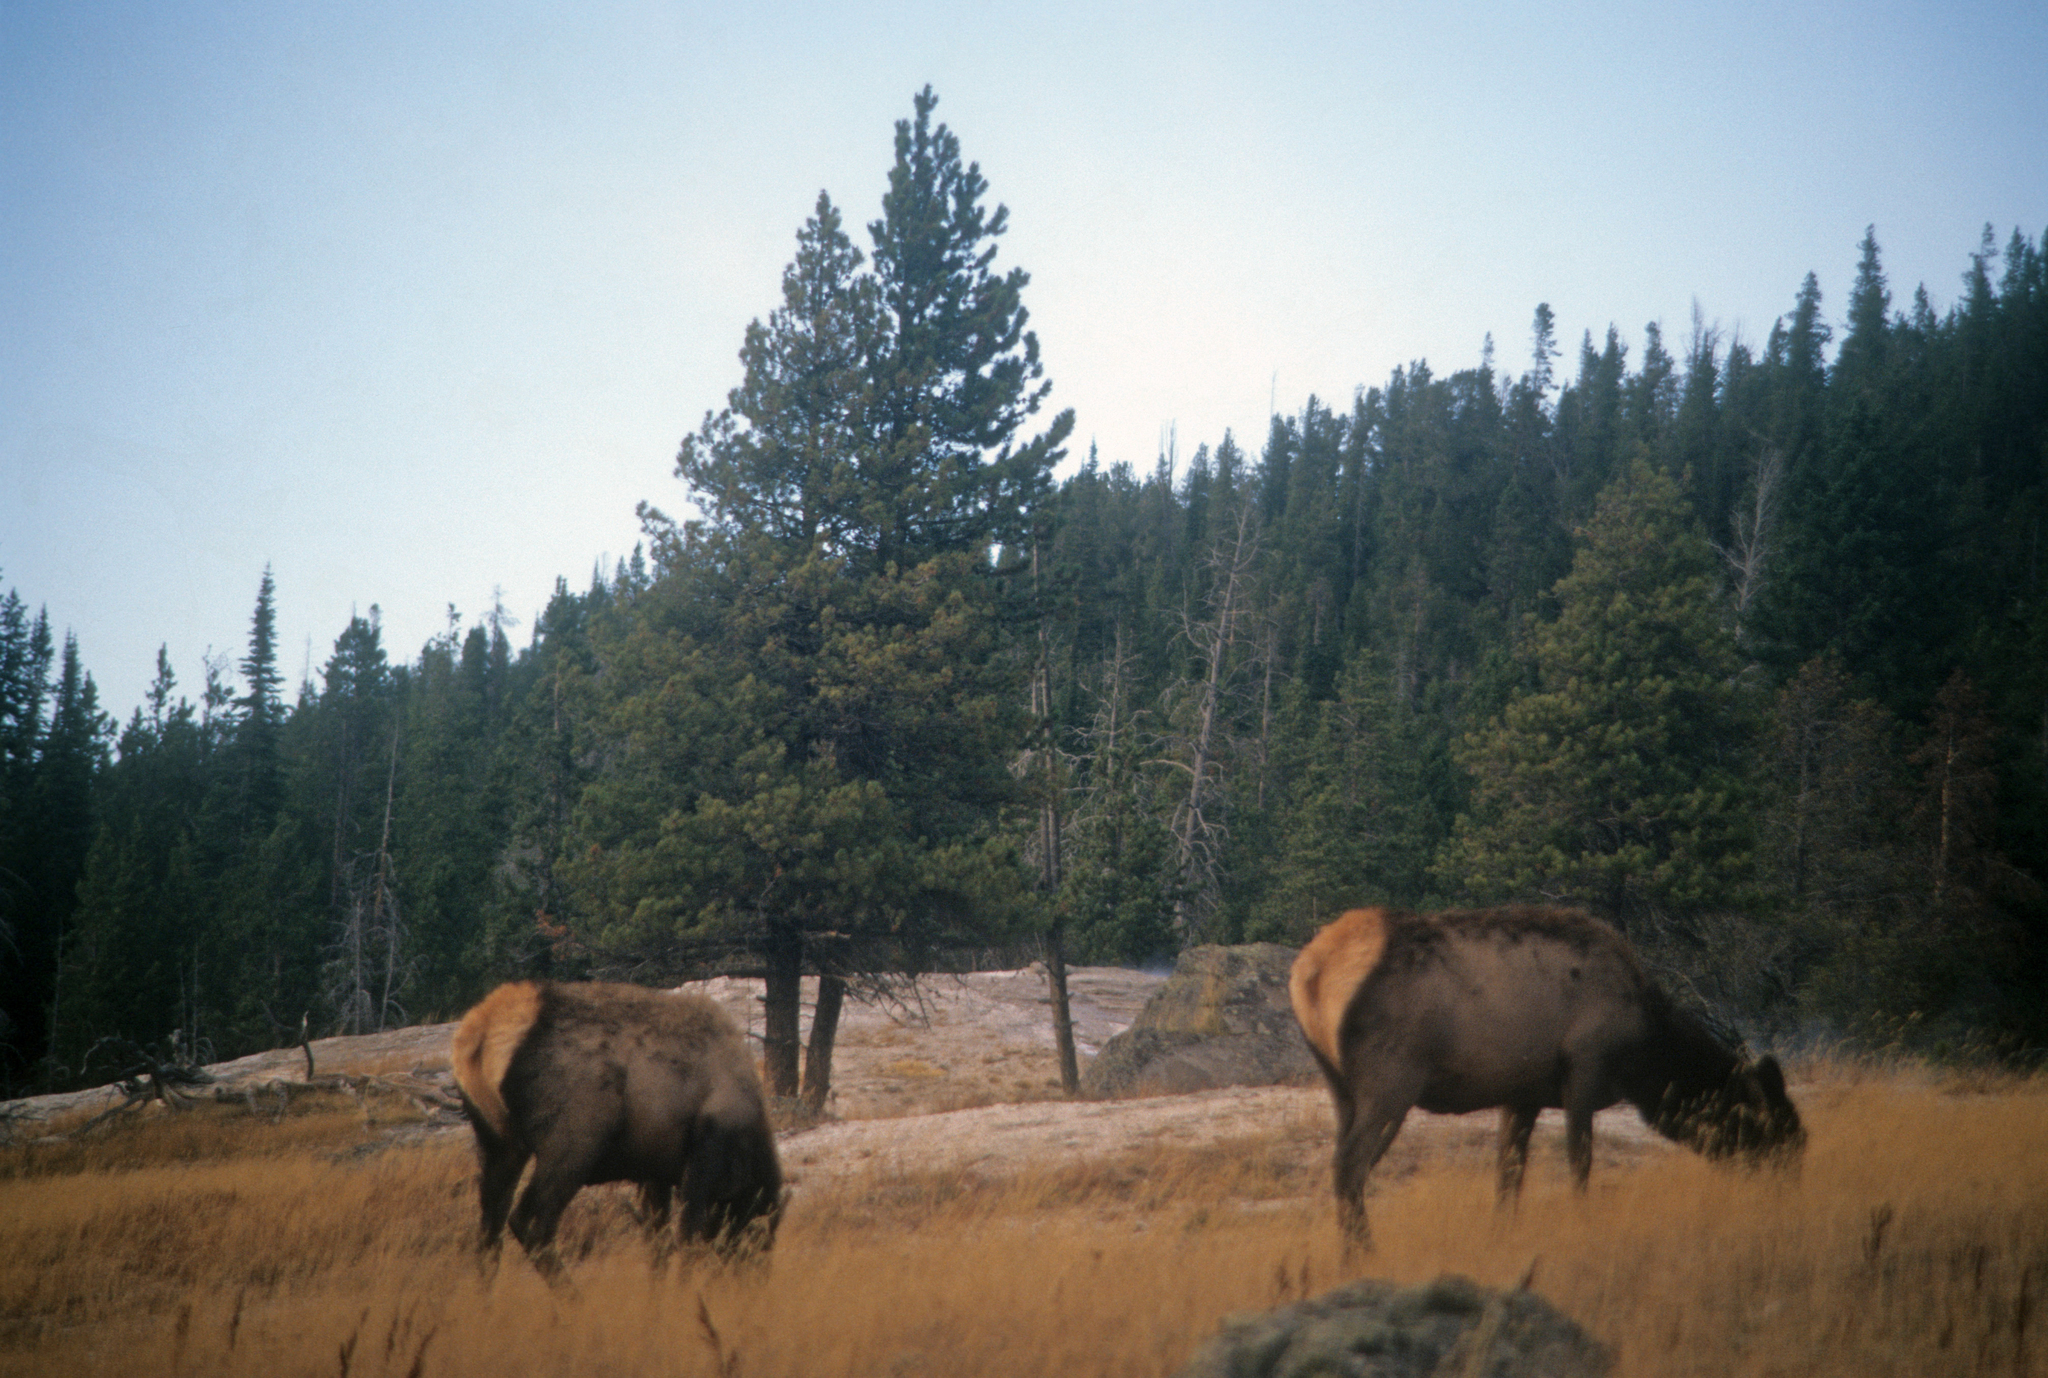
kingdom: Animalia
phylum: Chordata
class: Mammalia
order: Artiodactyla
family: Cervidae
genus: Cervus
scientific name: Cervus elaphus
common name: Red deer
